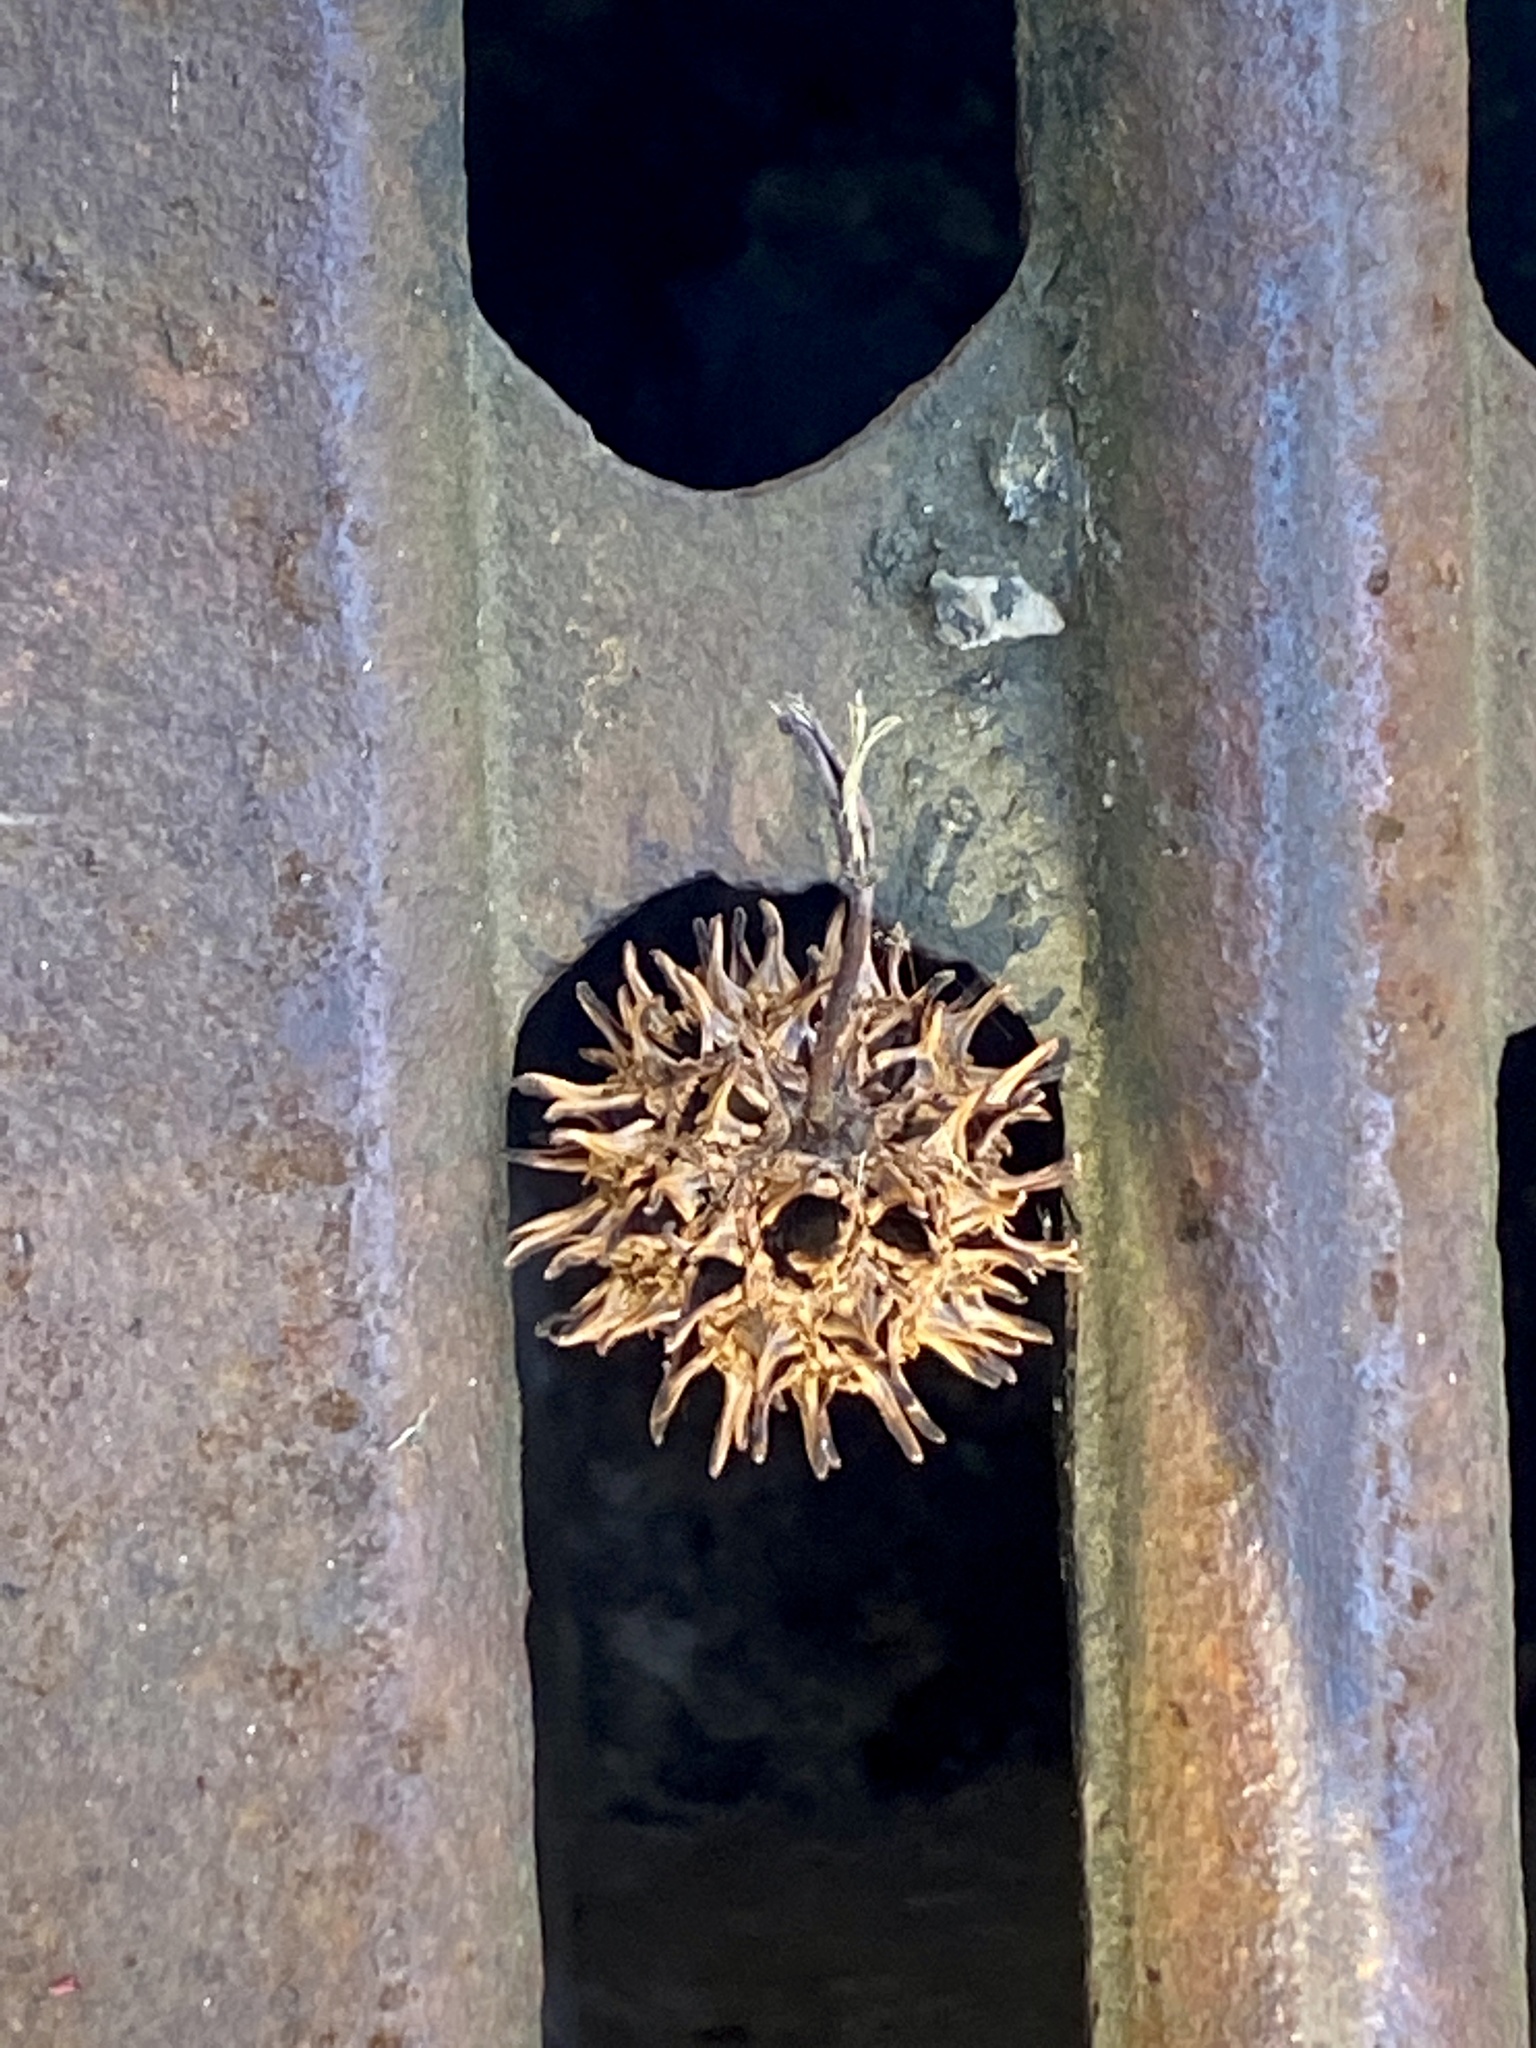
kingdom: Plantae
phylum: Tracheophyta
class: Magnoliopsida
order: Saxifragales
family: Altingiaceae
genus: Liquidambar
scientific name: Liquidambar styraciflua
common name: Sweet gum
